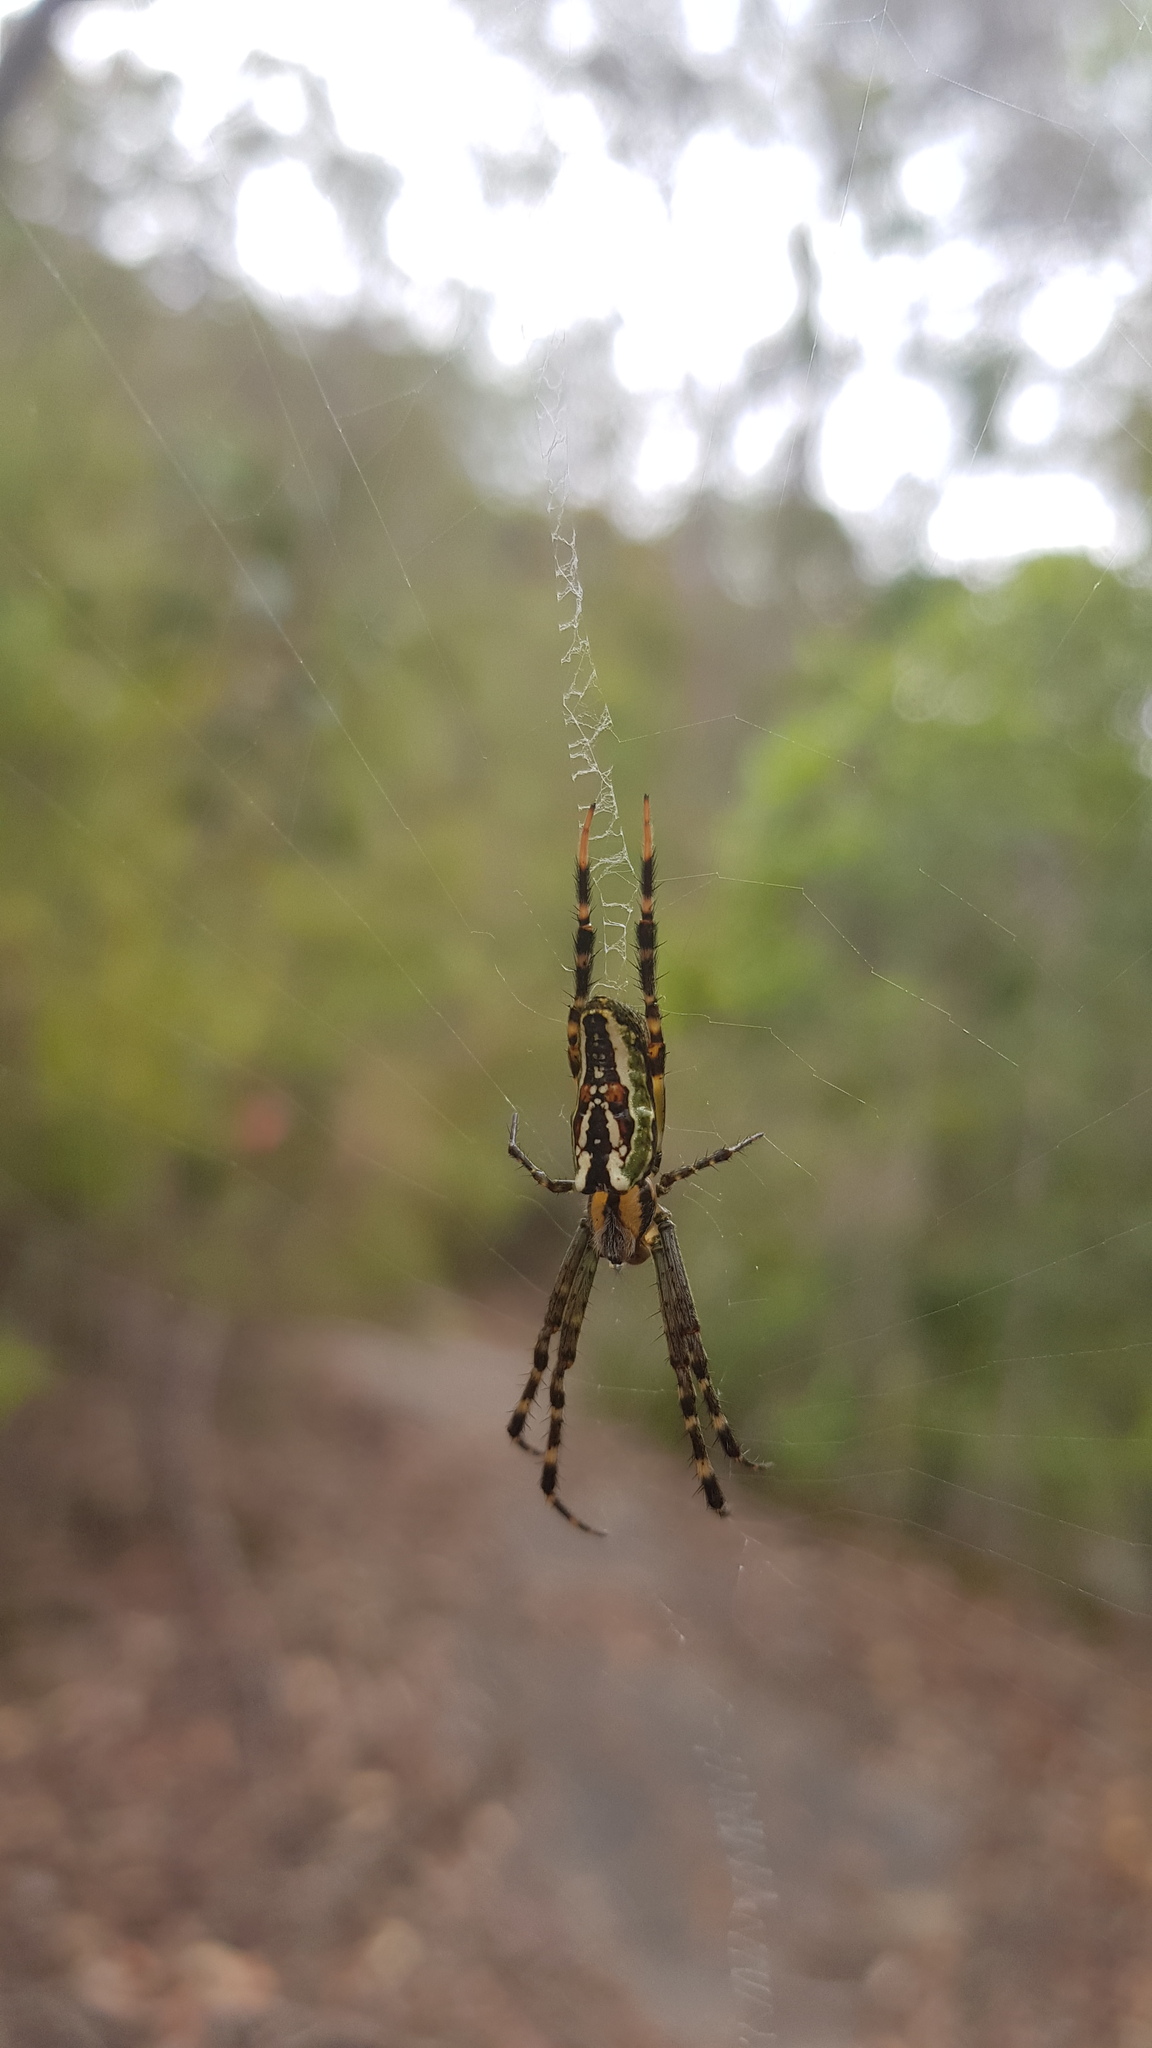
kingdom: Animalia
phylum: Arthropoda
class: Arachnida
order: Araneae
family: Araneidae
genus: Plebs
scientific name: Plebs bradleyi
